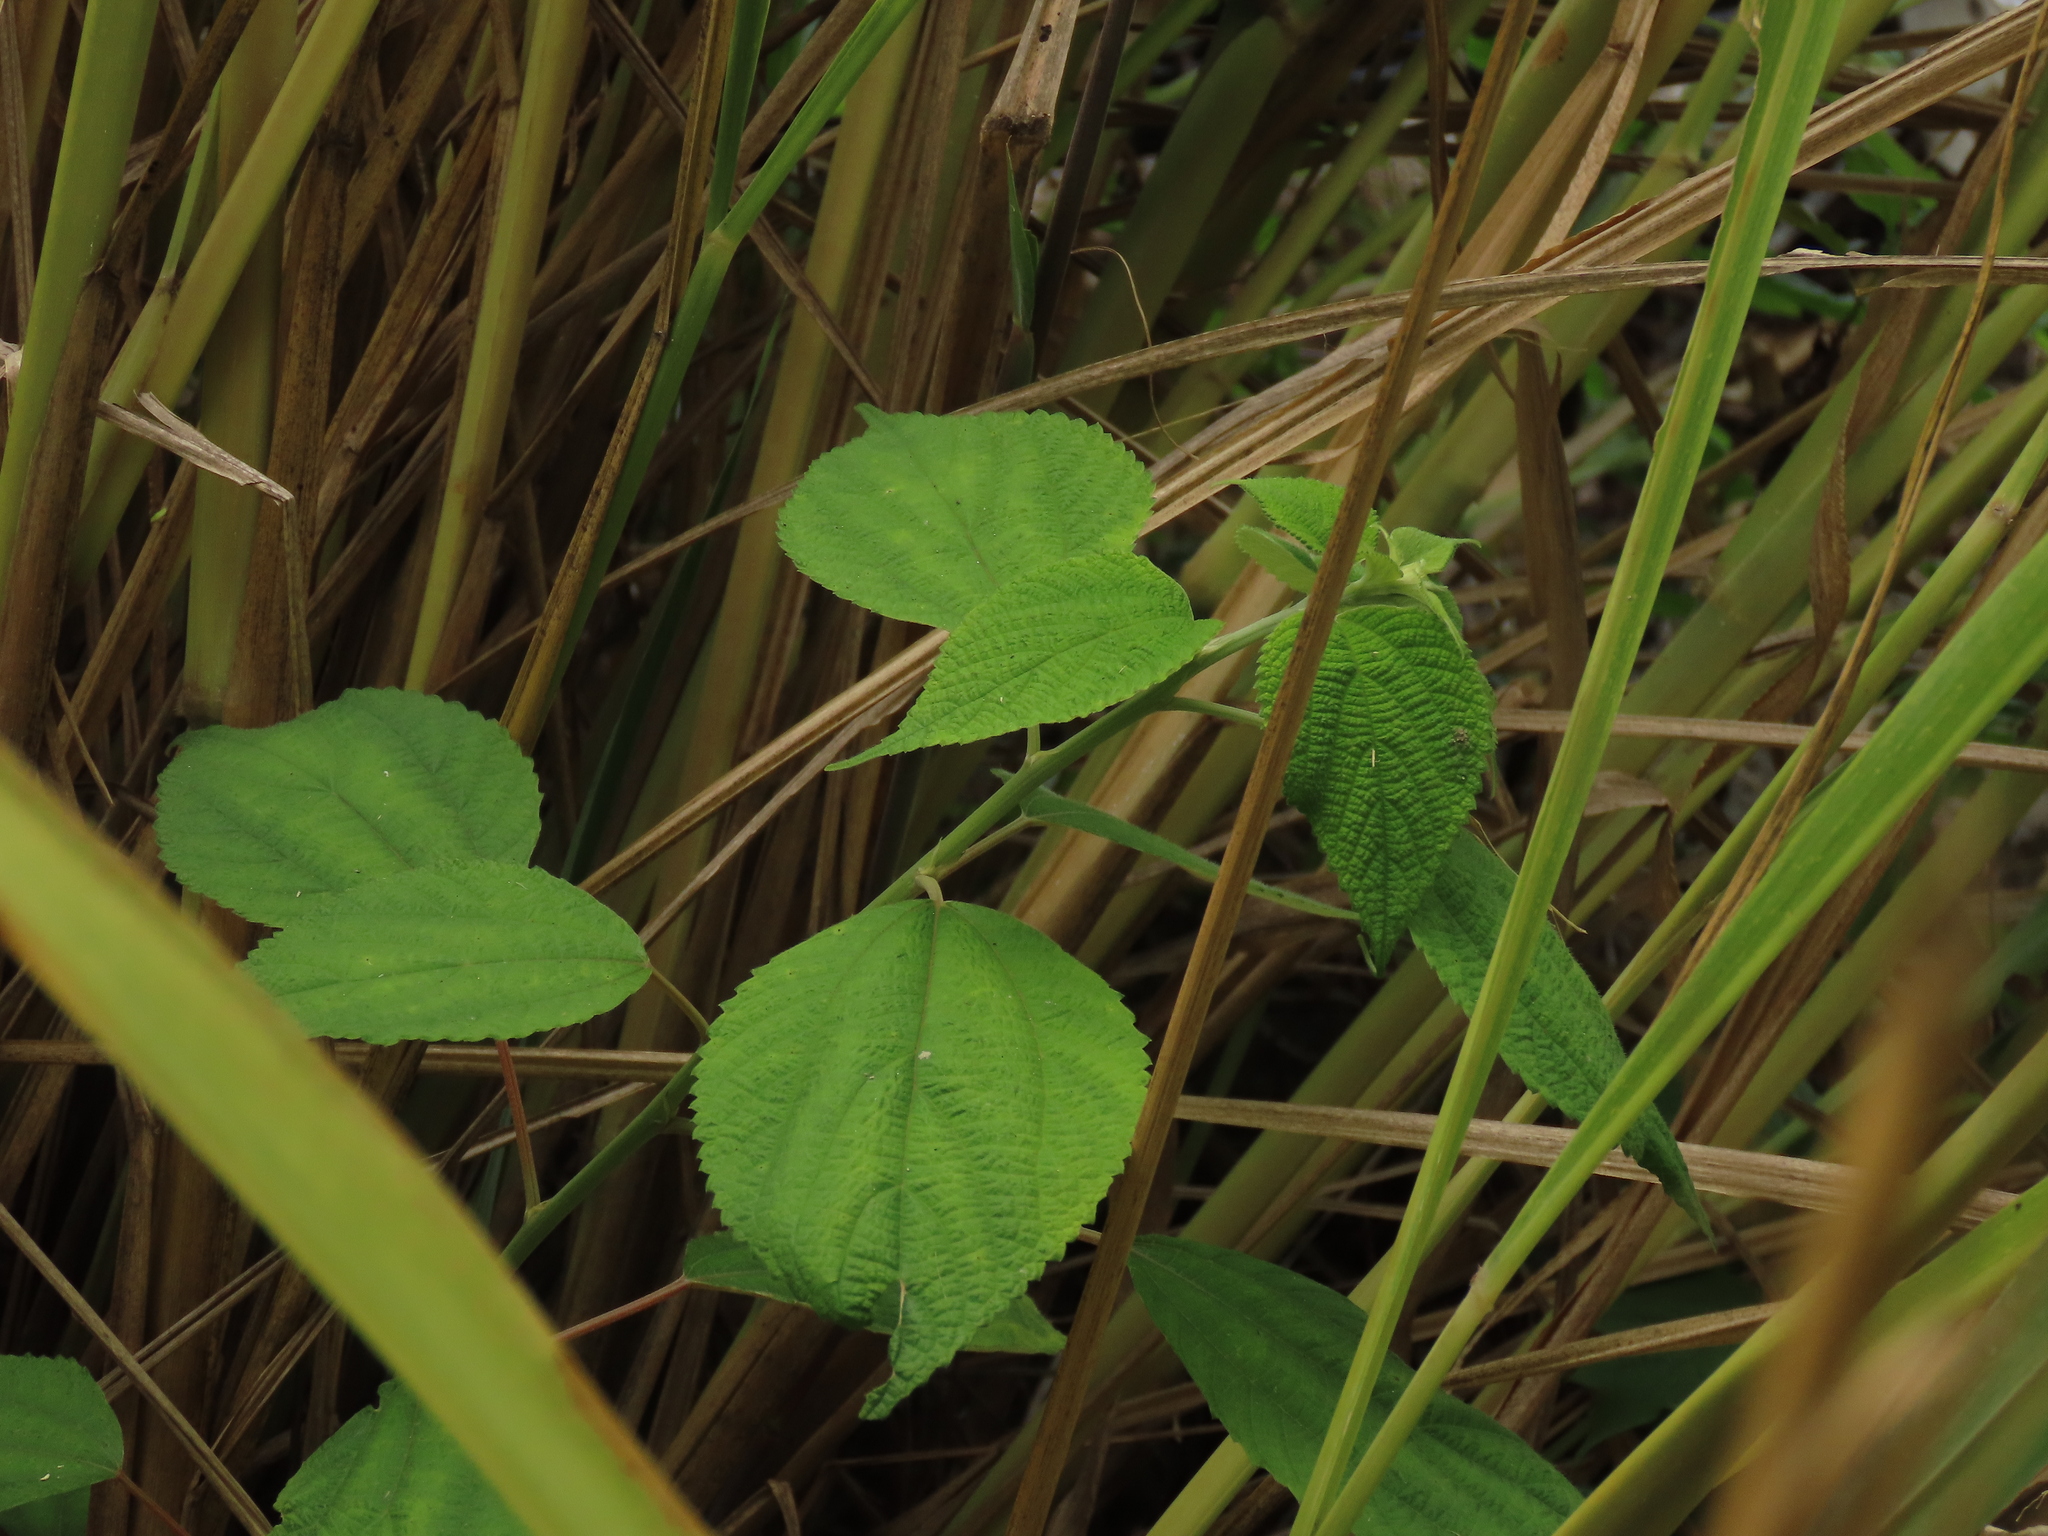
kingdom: Plantae
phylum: Tracheophyta
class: Magnoliopsida
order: Rosales
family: Urticaceae
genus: Boehmeria
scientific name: Boehmeria nivea
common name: Ramie chinese grass
